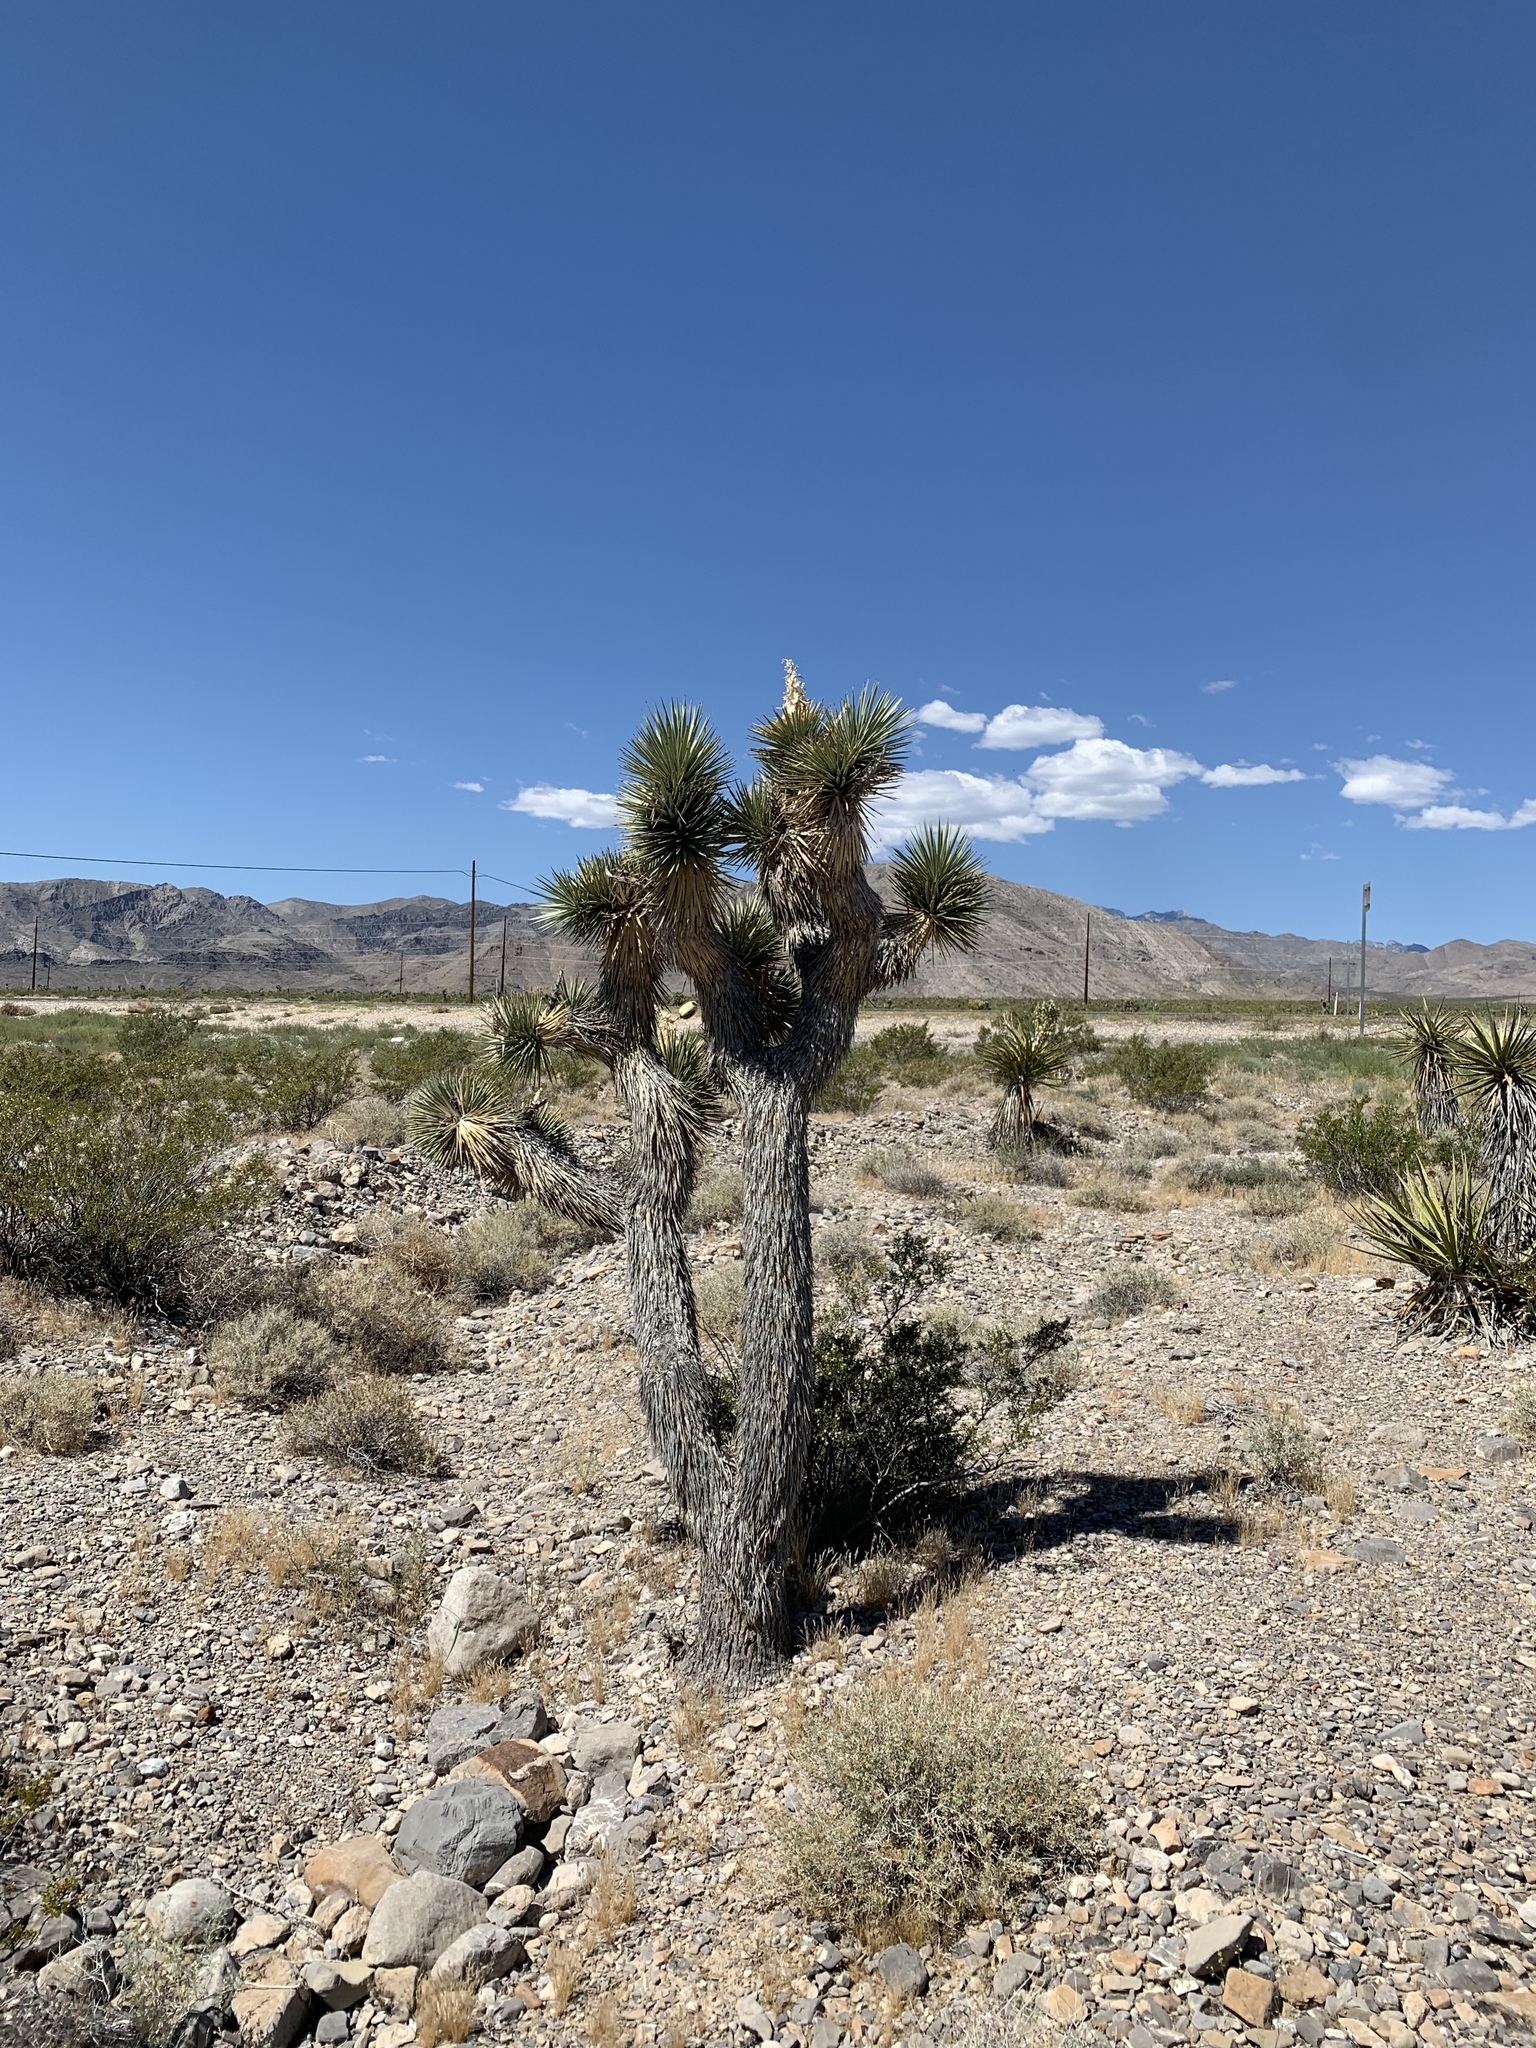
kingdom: Plantae
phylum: Tracheophyta
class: Liliopsida
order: Asparagales
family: Asparagaceae
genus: Yucca
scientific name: Yucca brevifolia
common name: Joshua tree
